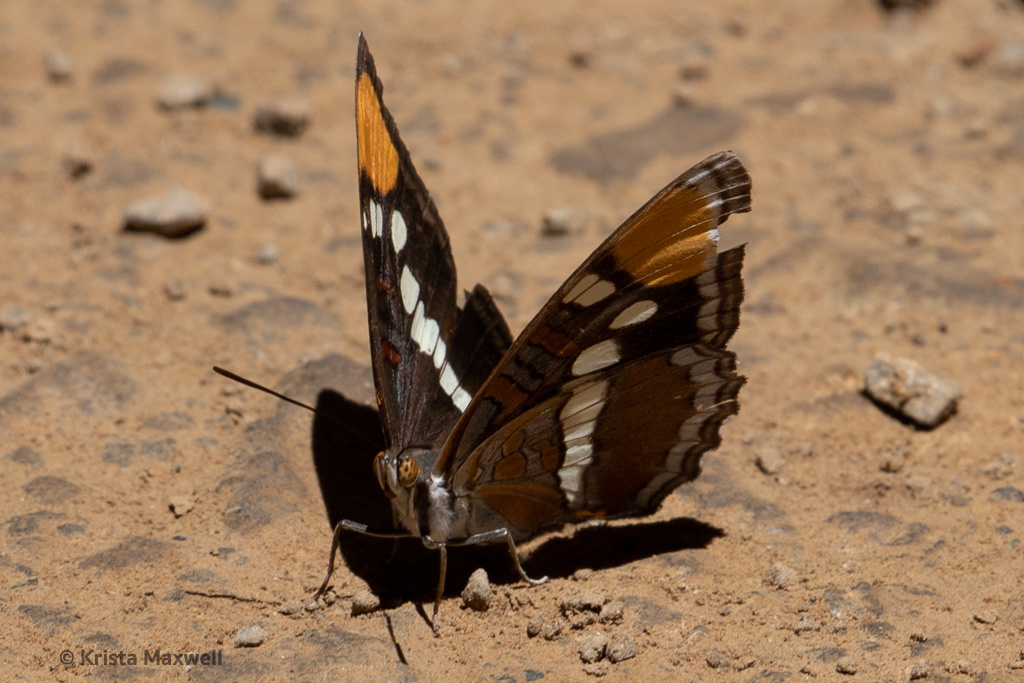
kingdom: Animalia
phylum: Arthropoda
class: Insecta
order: Lepidoptera
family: Nymphalidae
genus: Limenitis
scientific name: Limenitis bredowii
